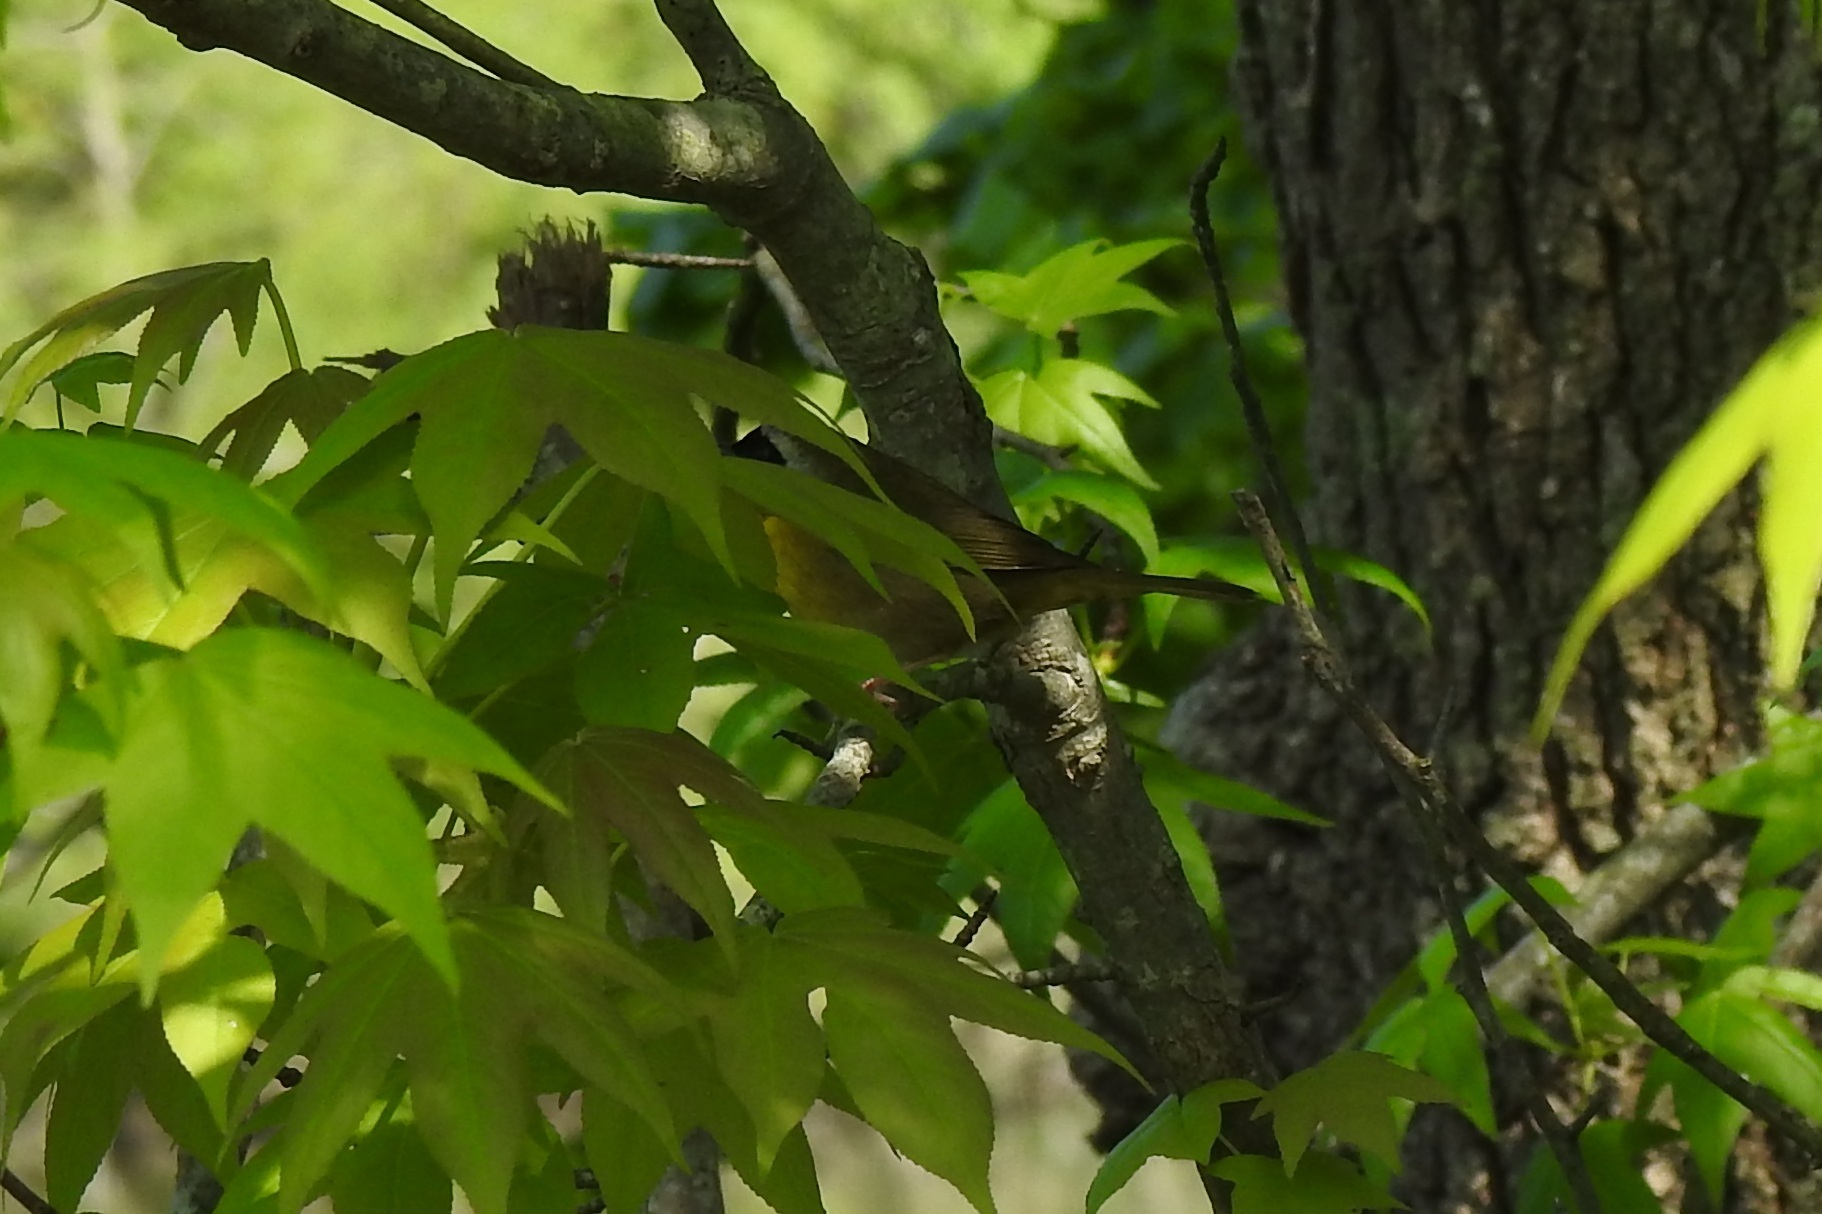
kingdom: Animalia
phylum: Chordata
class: Aves
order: Passeriformes
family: Parulidae
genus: Geothlypis
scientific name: Geothlypis trichas
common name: Common yellowthroat
